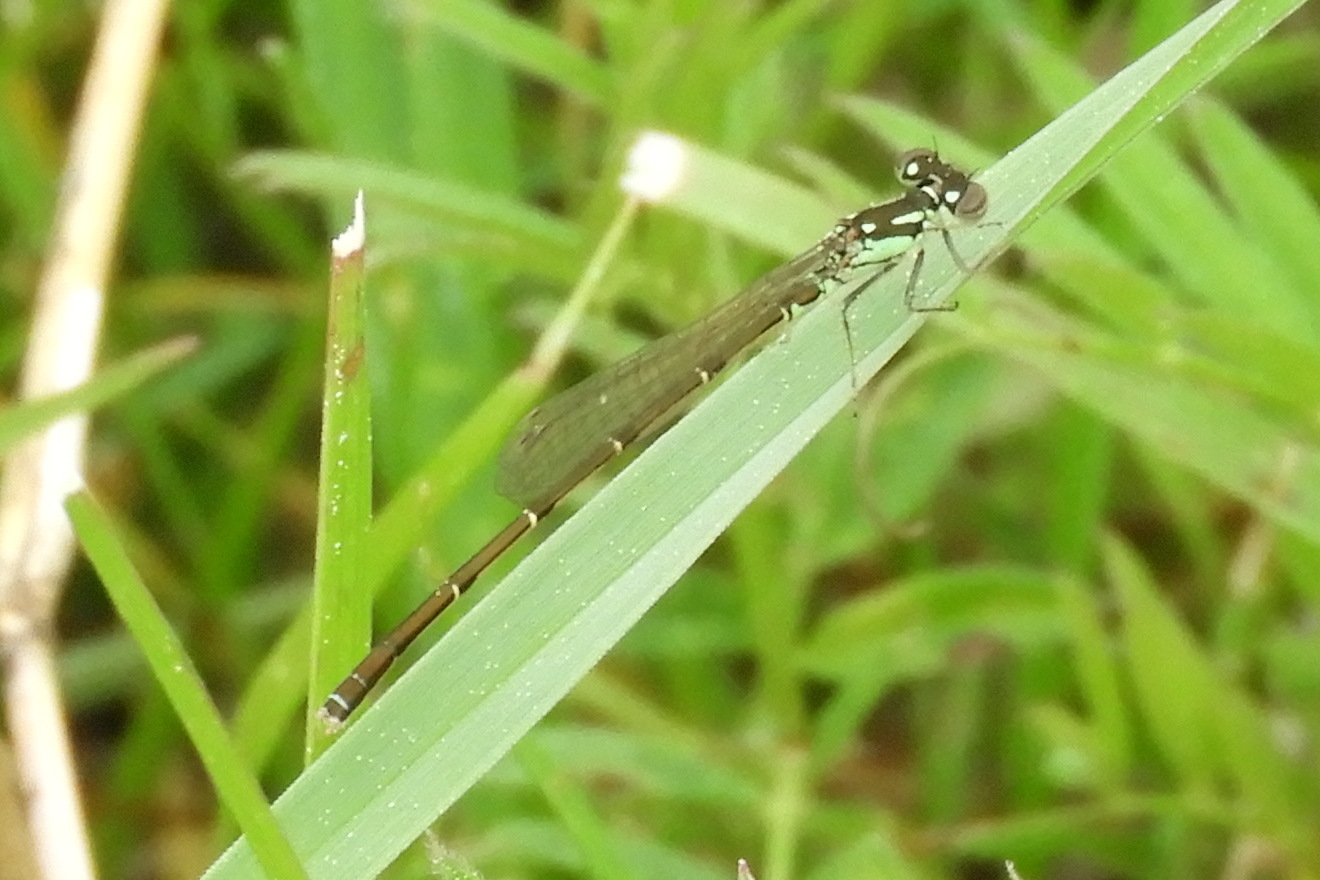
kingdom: Animalia
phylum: Arthropoda
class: Insecta
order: Odonata
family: Coenagrionidae
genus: Ischnura
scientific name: Ischnura posita
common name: Fragile forktail
